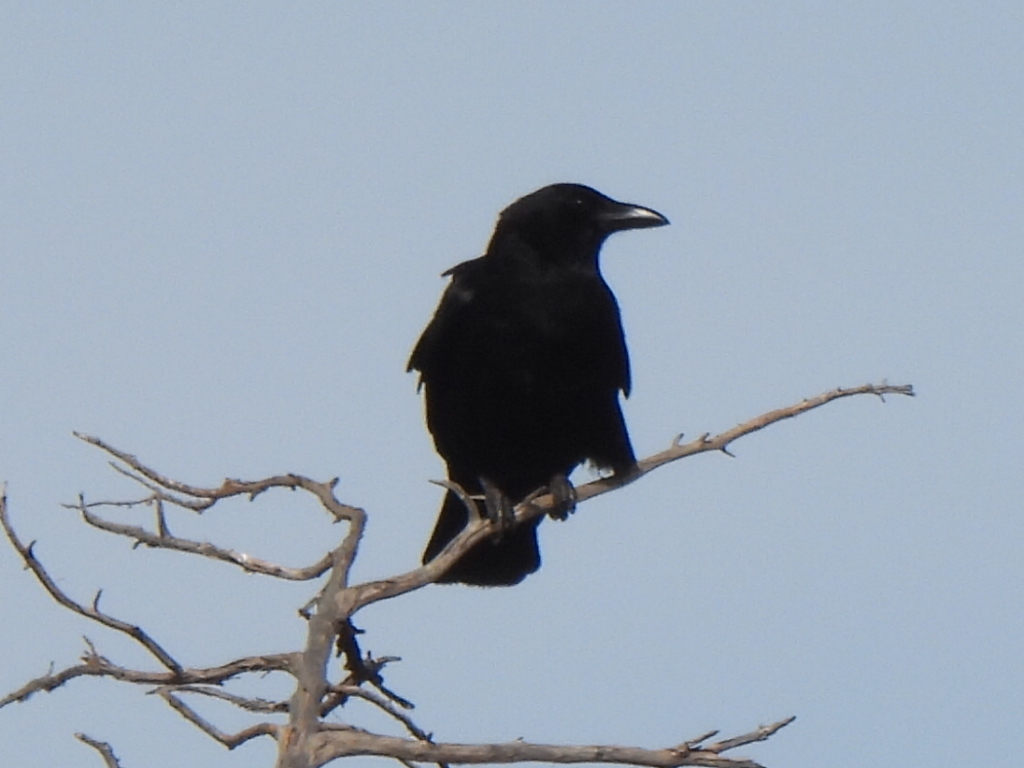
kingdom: Animalia
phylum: Chordata
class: Aves
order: Passeriformes
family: Corvidae
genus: Corvus
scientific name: Corvus brachyrhynchos
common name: American crow
